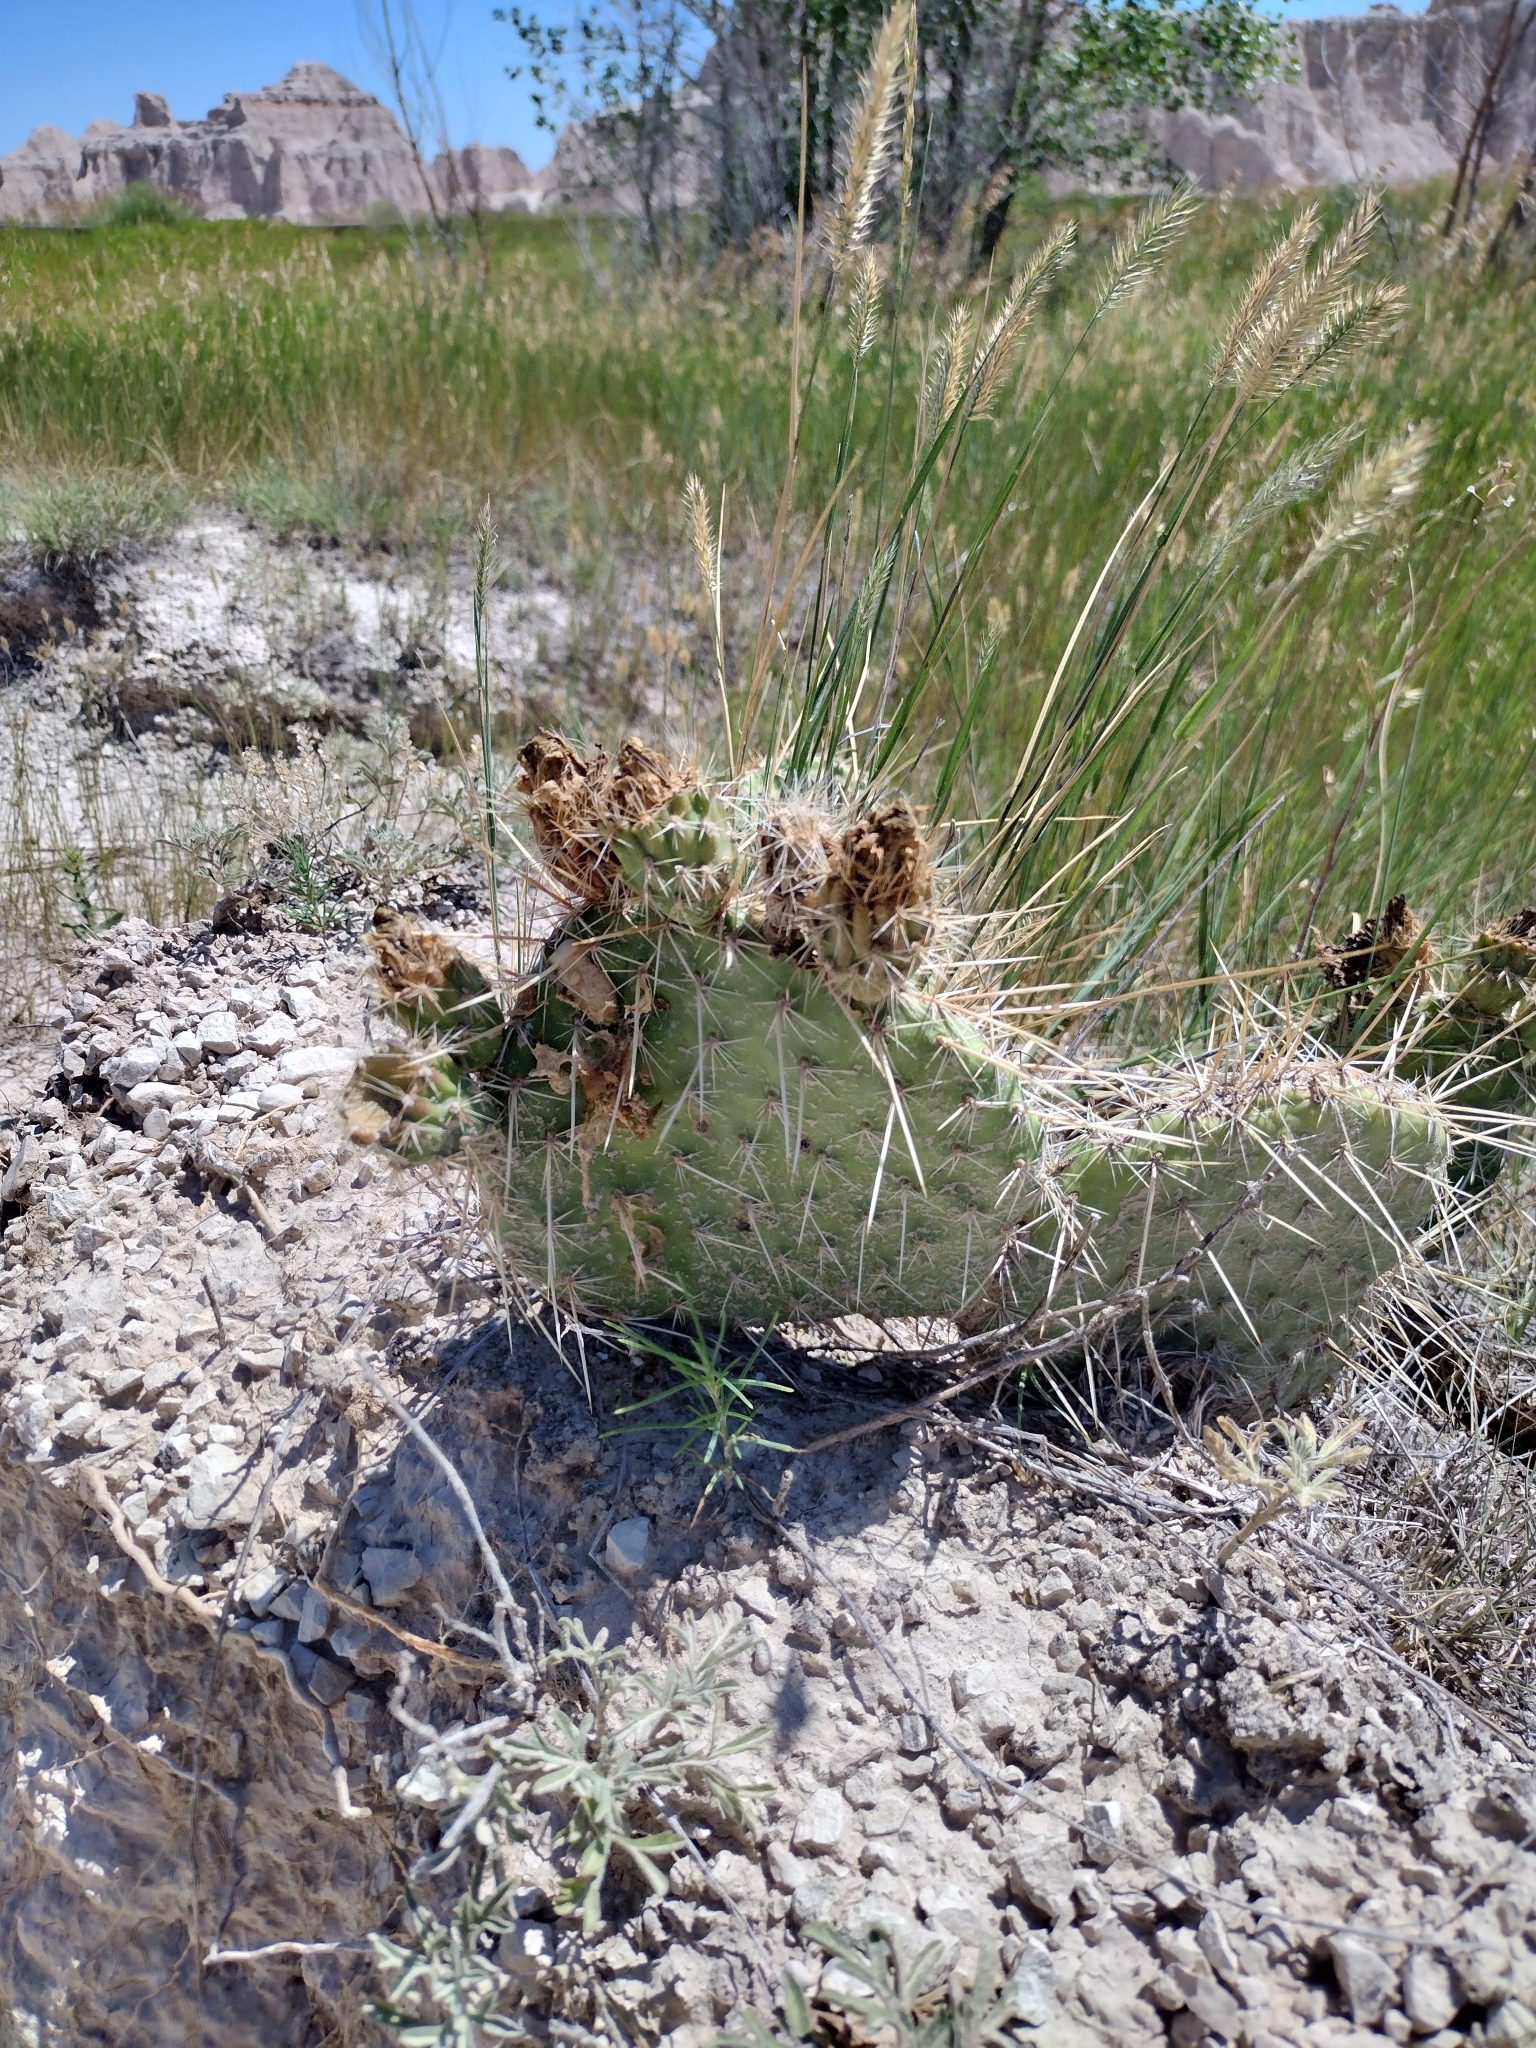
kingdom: Plantae
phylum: Tracheophyta
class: Magnoliopsida
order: Caryophyllales
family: Cactaceae
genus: Opuntia
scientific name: Opuntia polyacantha
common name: Plains prickly-pear
